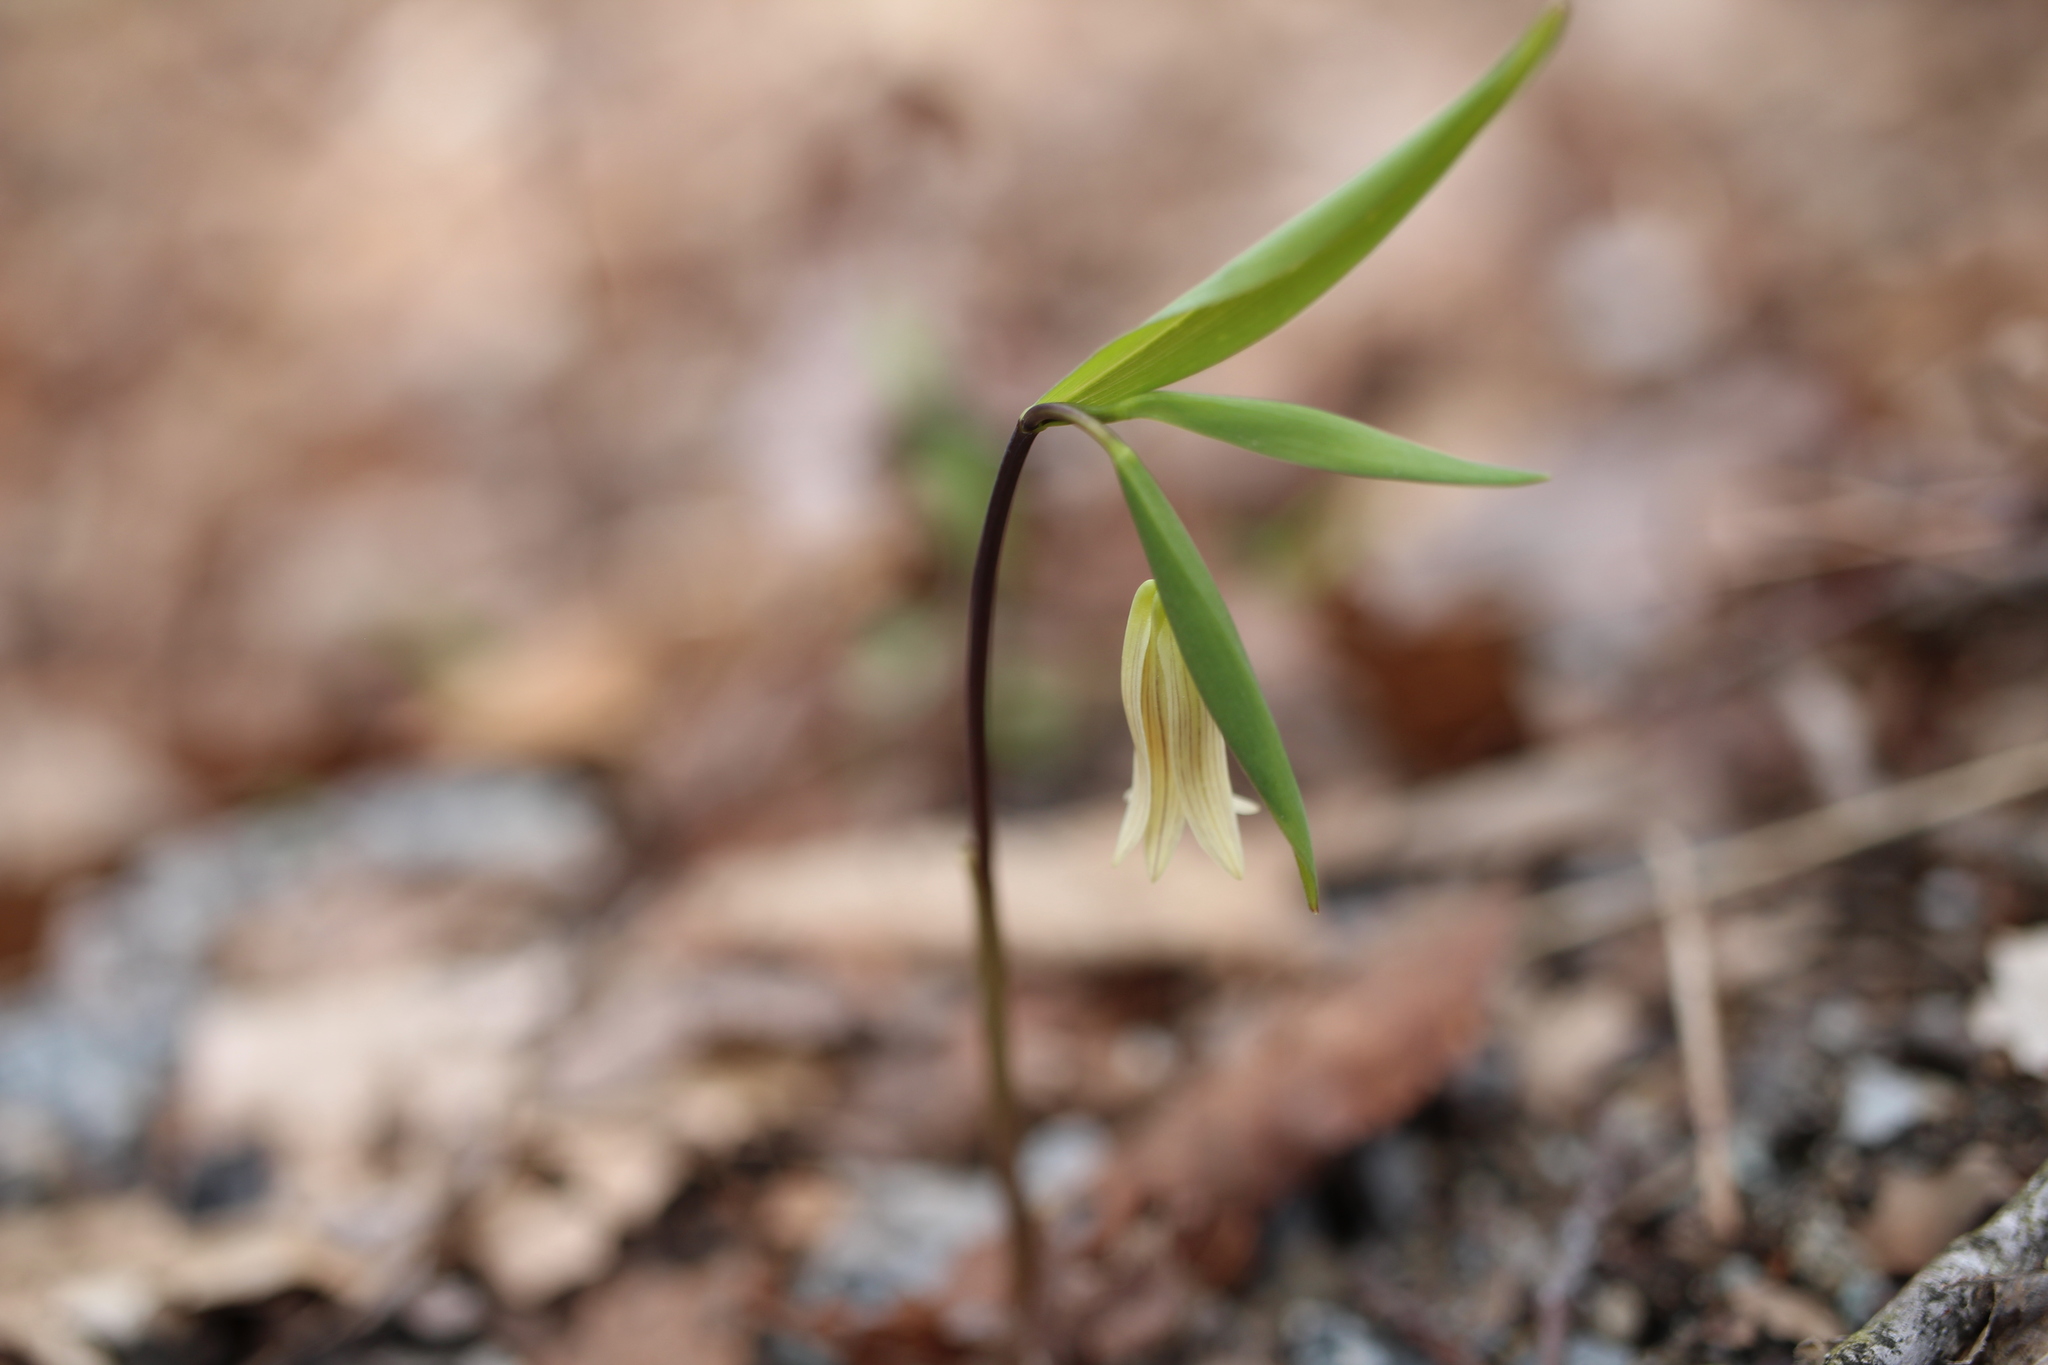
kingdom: Plantae
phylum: Tracheophyta
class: Liliopsida
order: Liliales
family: Colchicaceae
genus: Uvularia
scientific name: Uvularia sessilifolia
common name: Straw-lily
